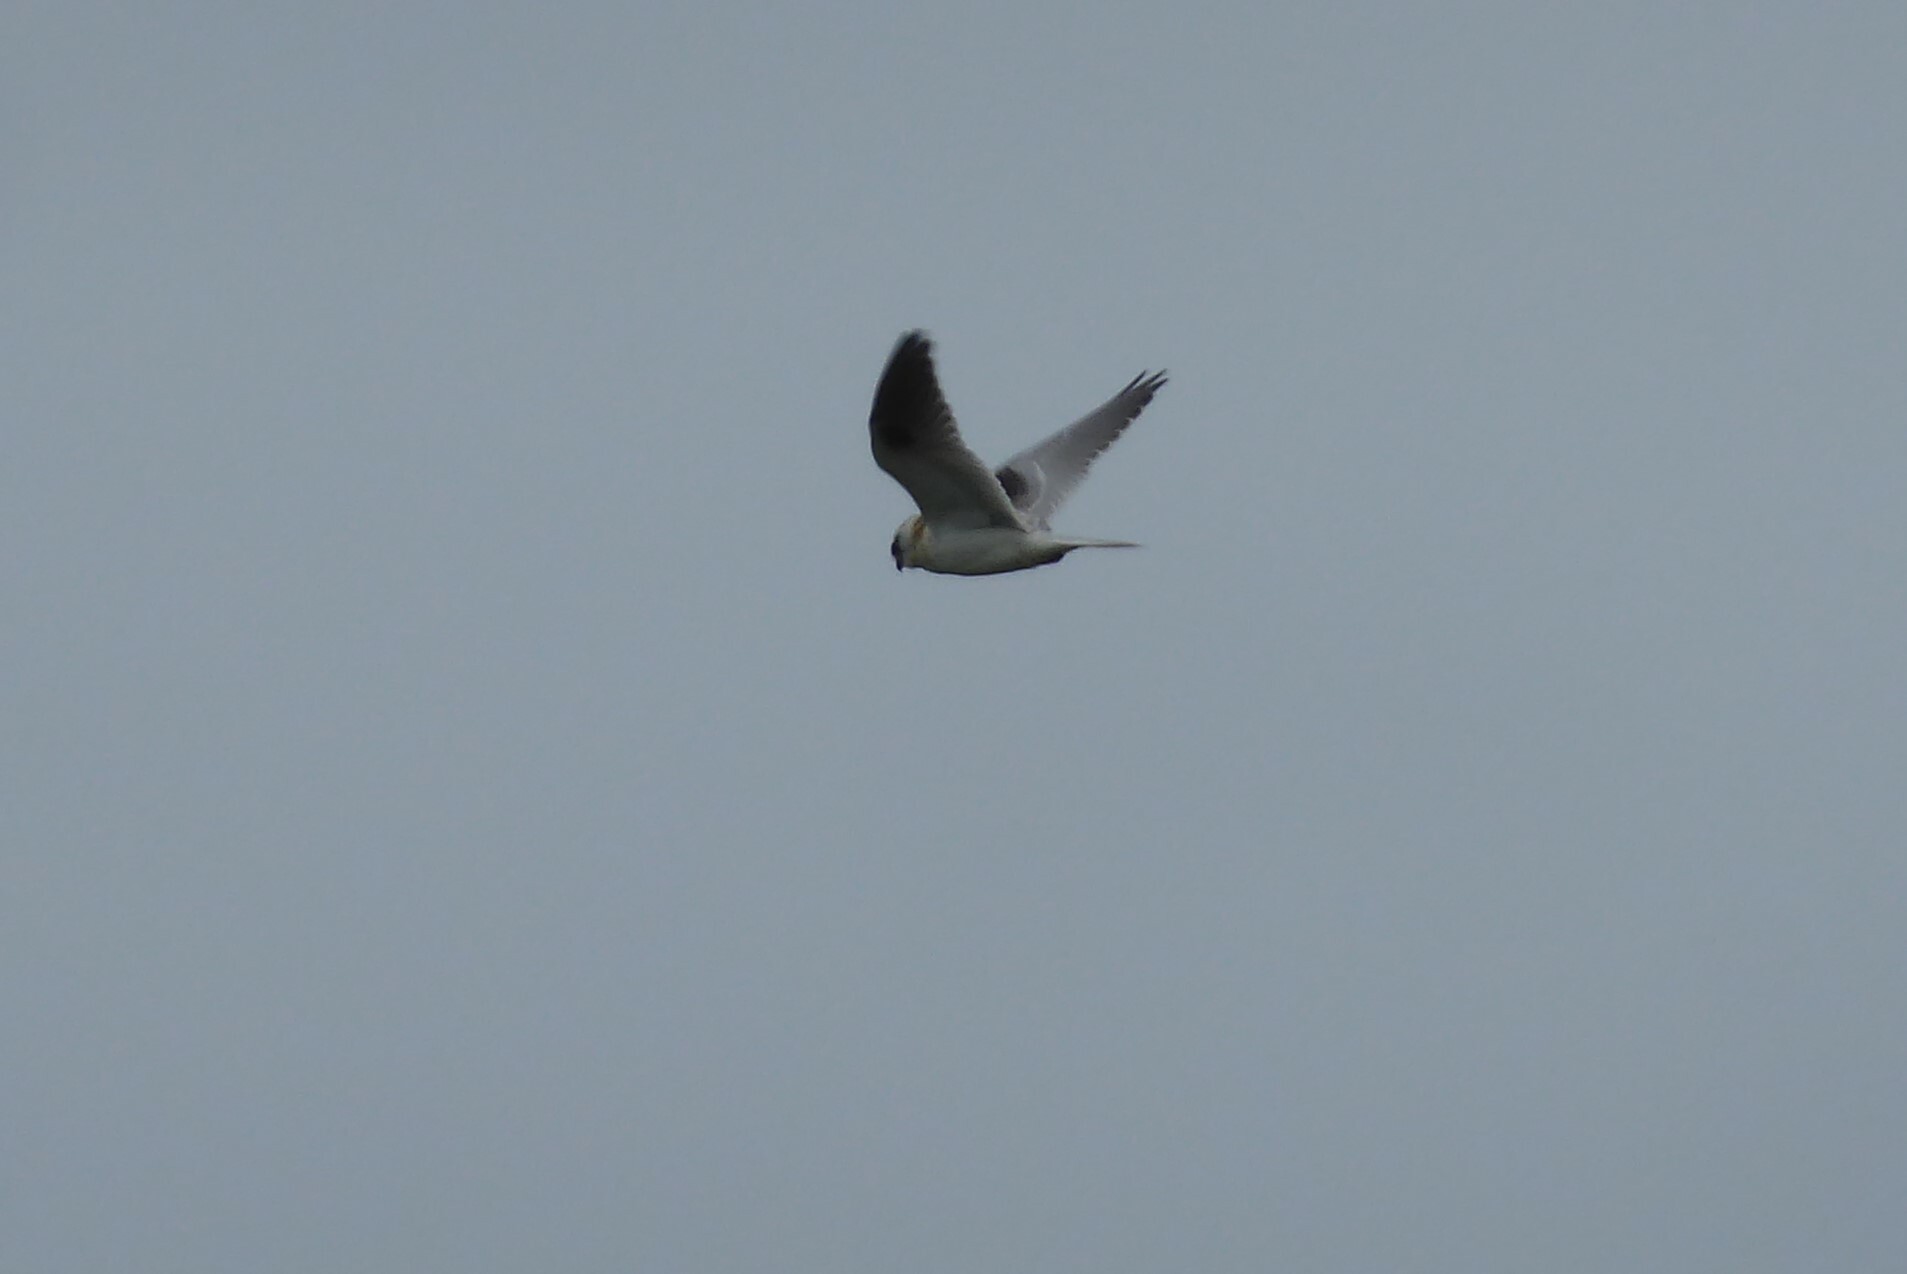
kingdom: Animalia
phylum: Chordata
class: Aves
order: Accipitriformes
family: Accipitridae
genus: Elanus
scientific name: Elanus axillaris
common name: Black-shouldered kite
